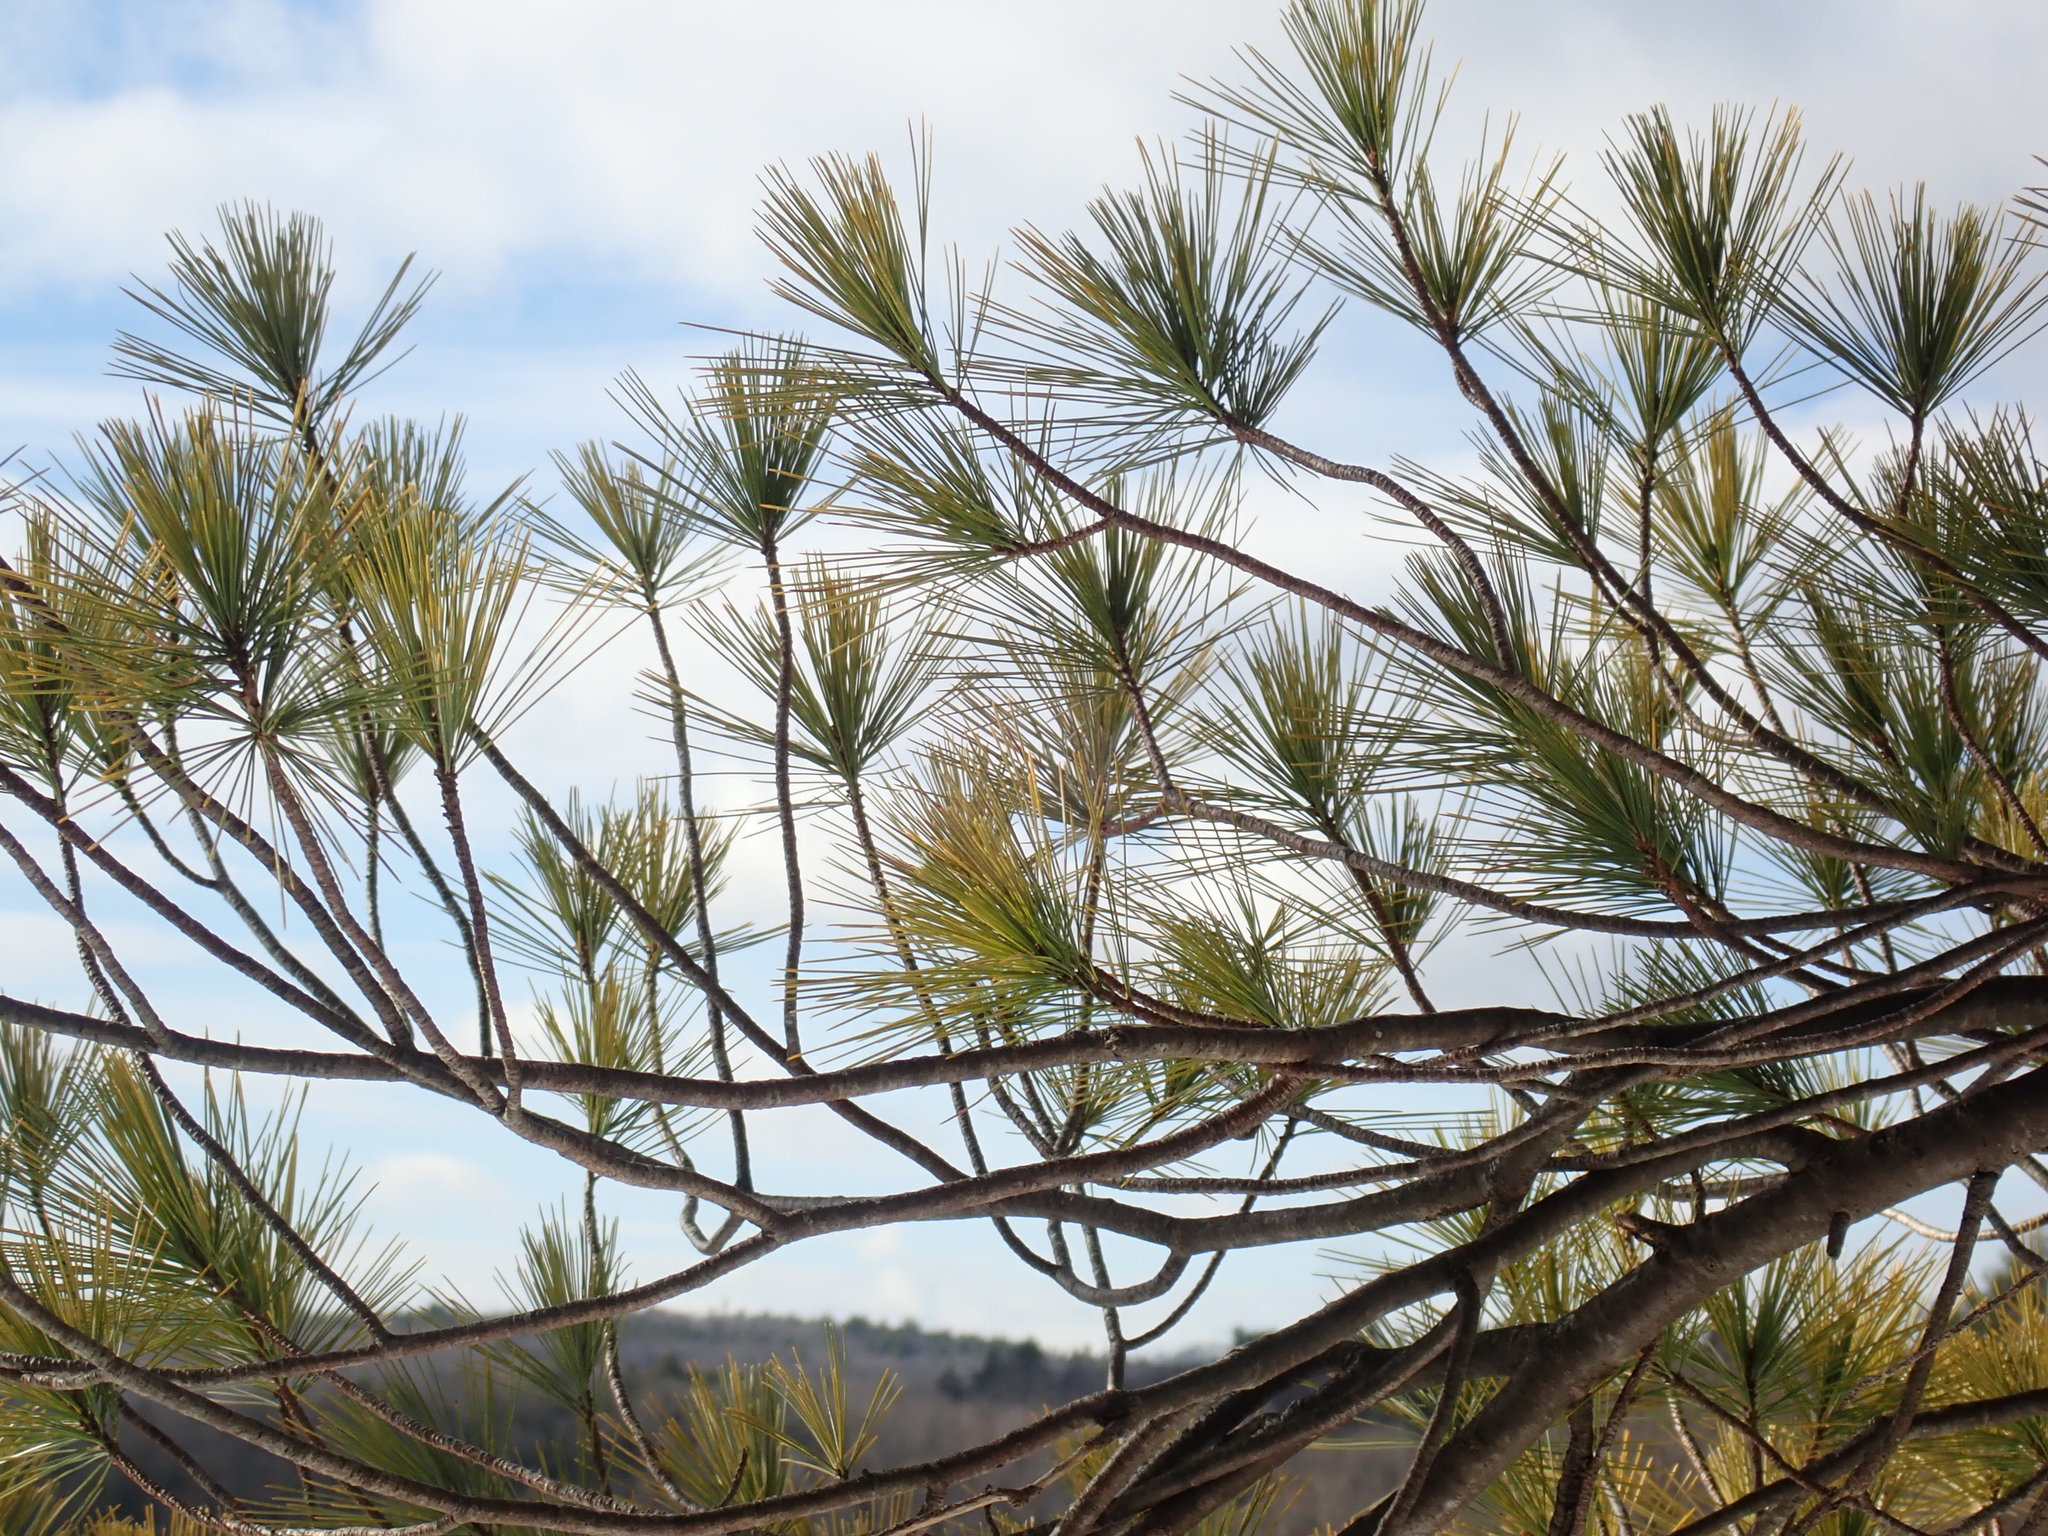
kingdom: Plantae
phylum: Tracheophyta
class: Pinopsida
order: Pinales
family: Pinaceae
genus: Pinus
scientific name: Pinus strobus
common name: Weymouth pine
